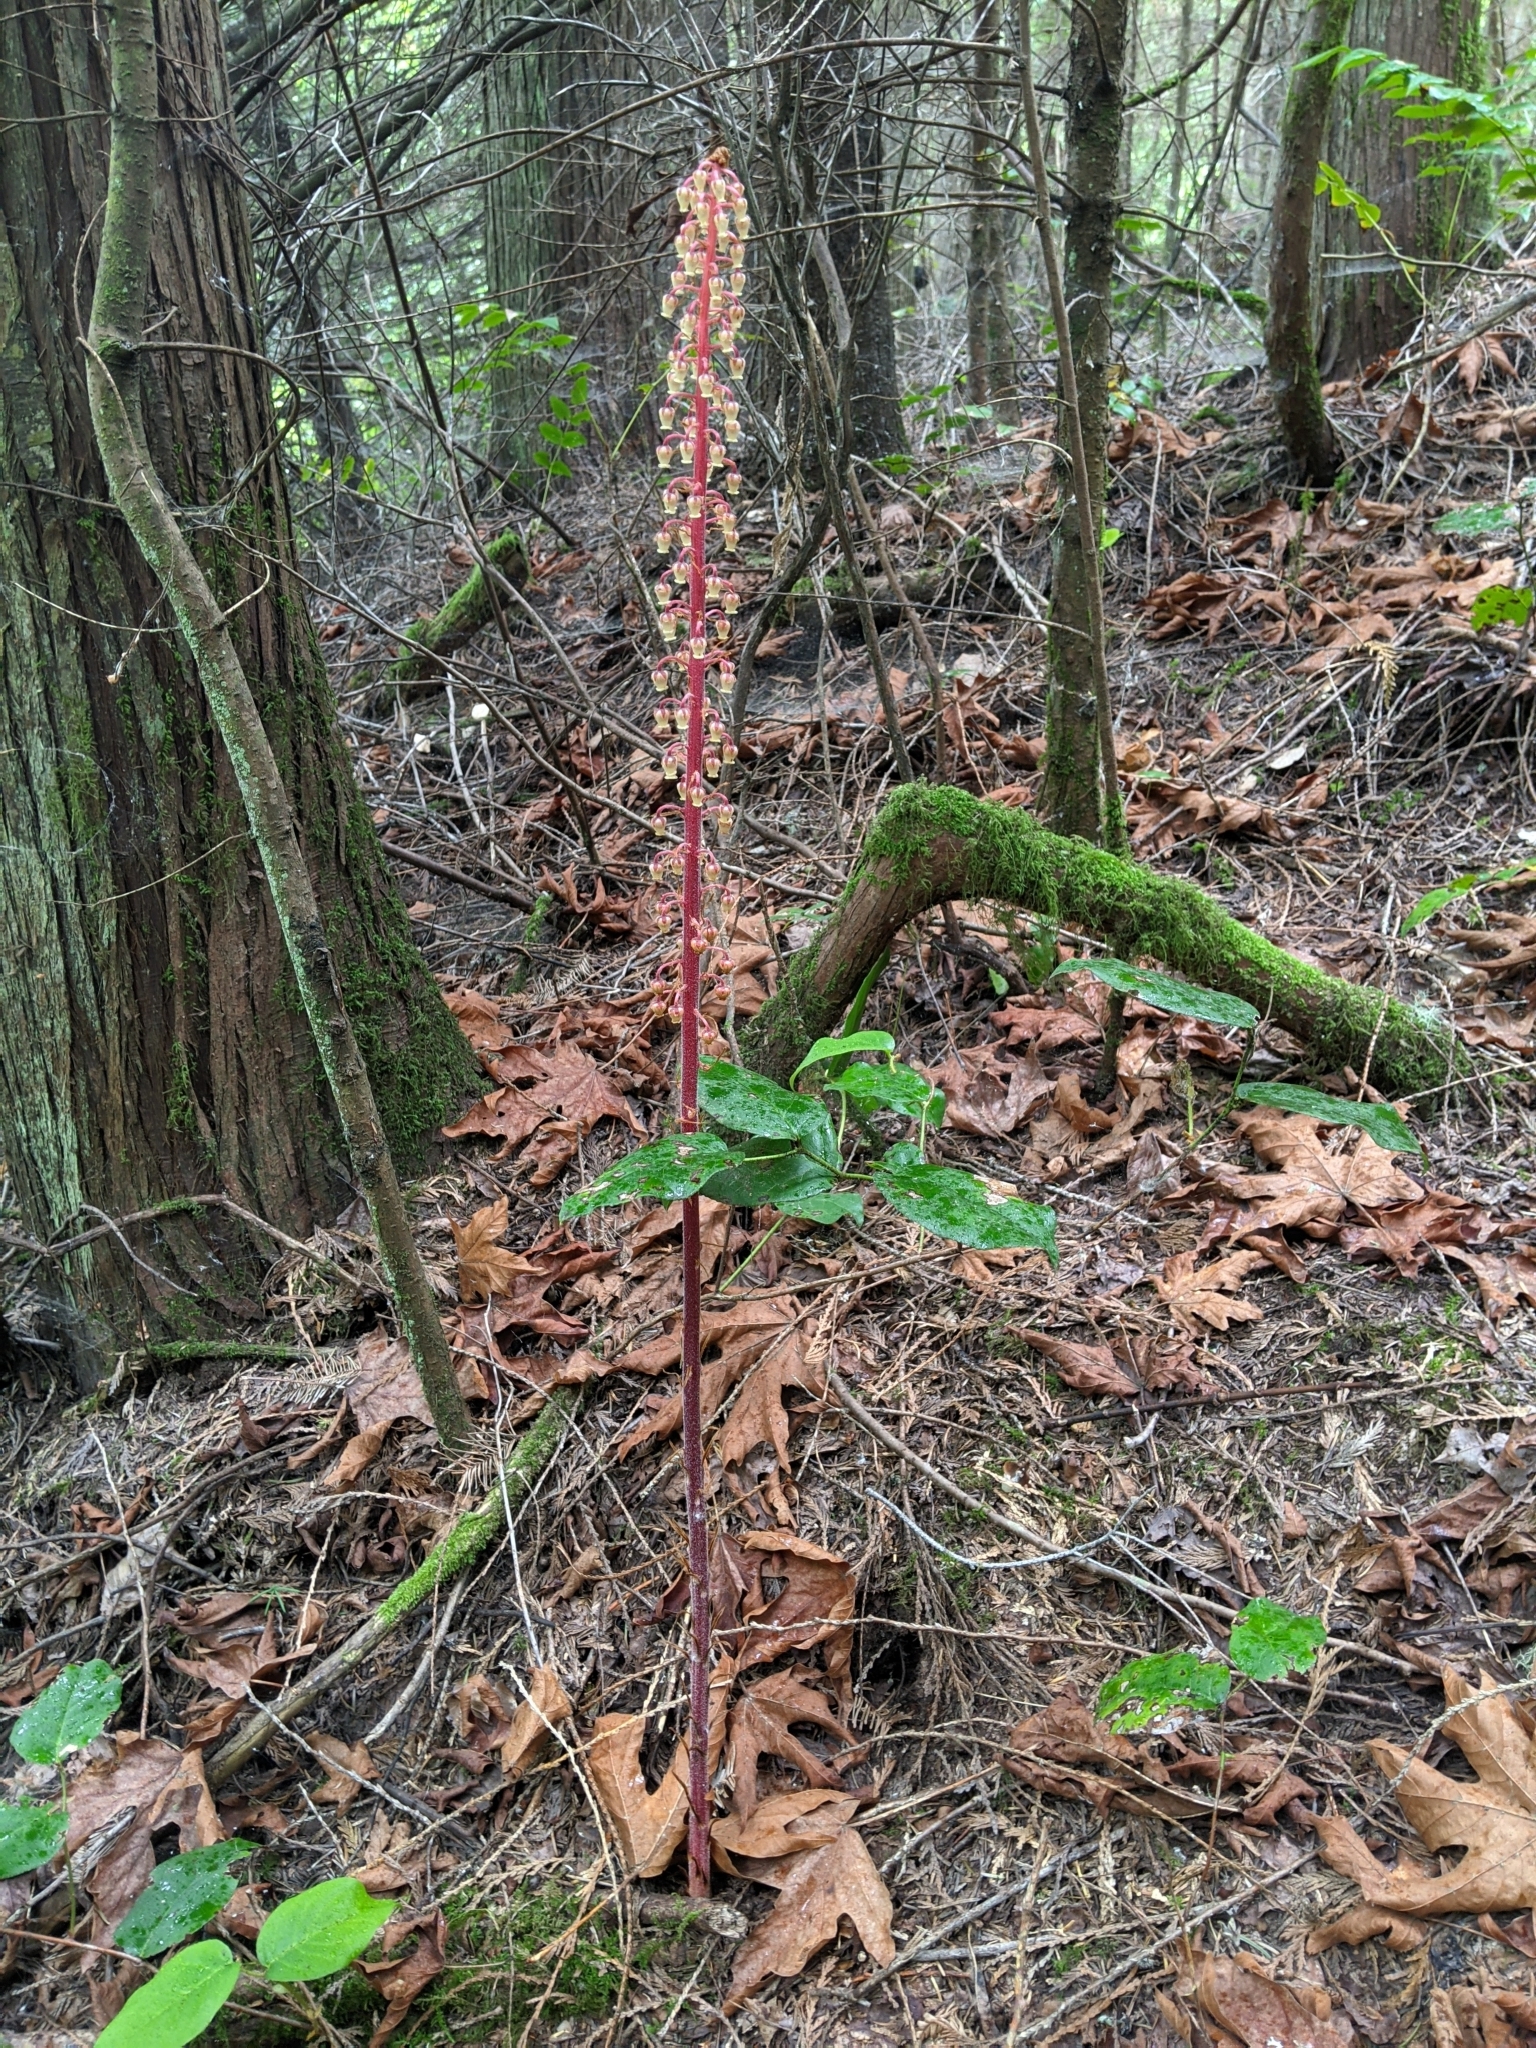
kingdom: Plantae
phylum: Tracheophyta
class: Magnoliopsida
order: Ericales
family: Ericaceae
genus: Pterospora
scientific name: Pterospora andromedea
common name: Giant bird's-nest
